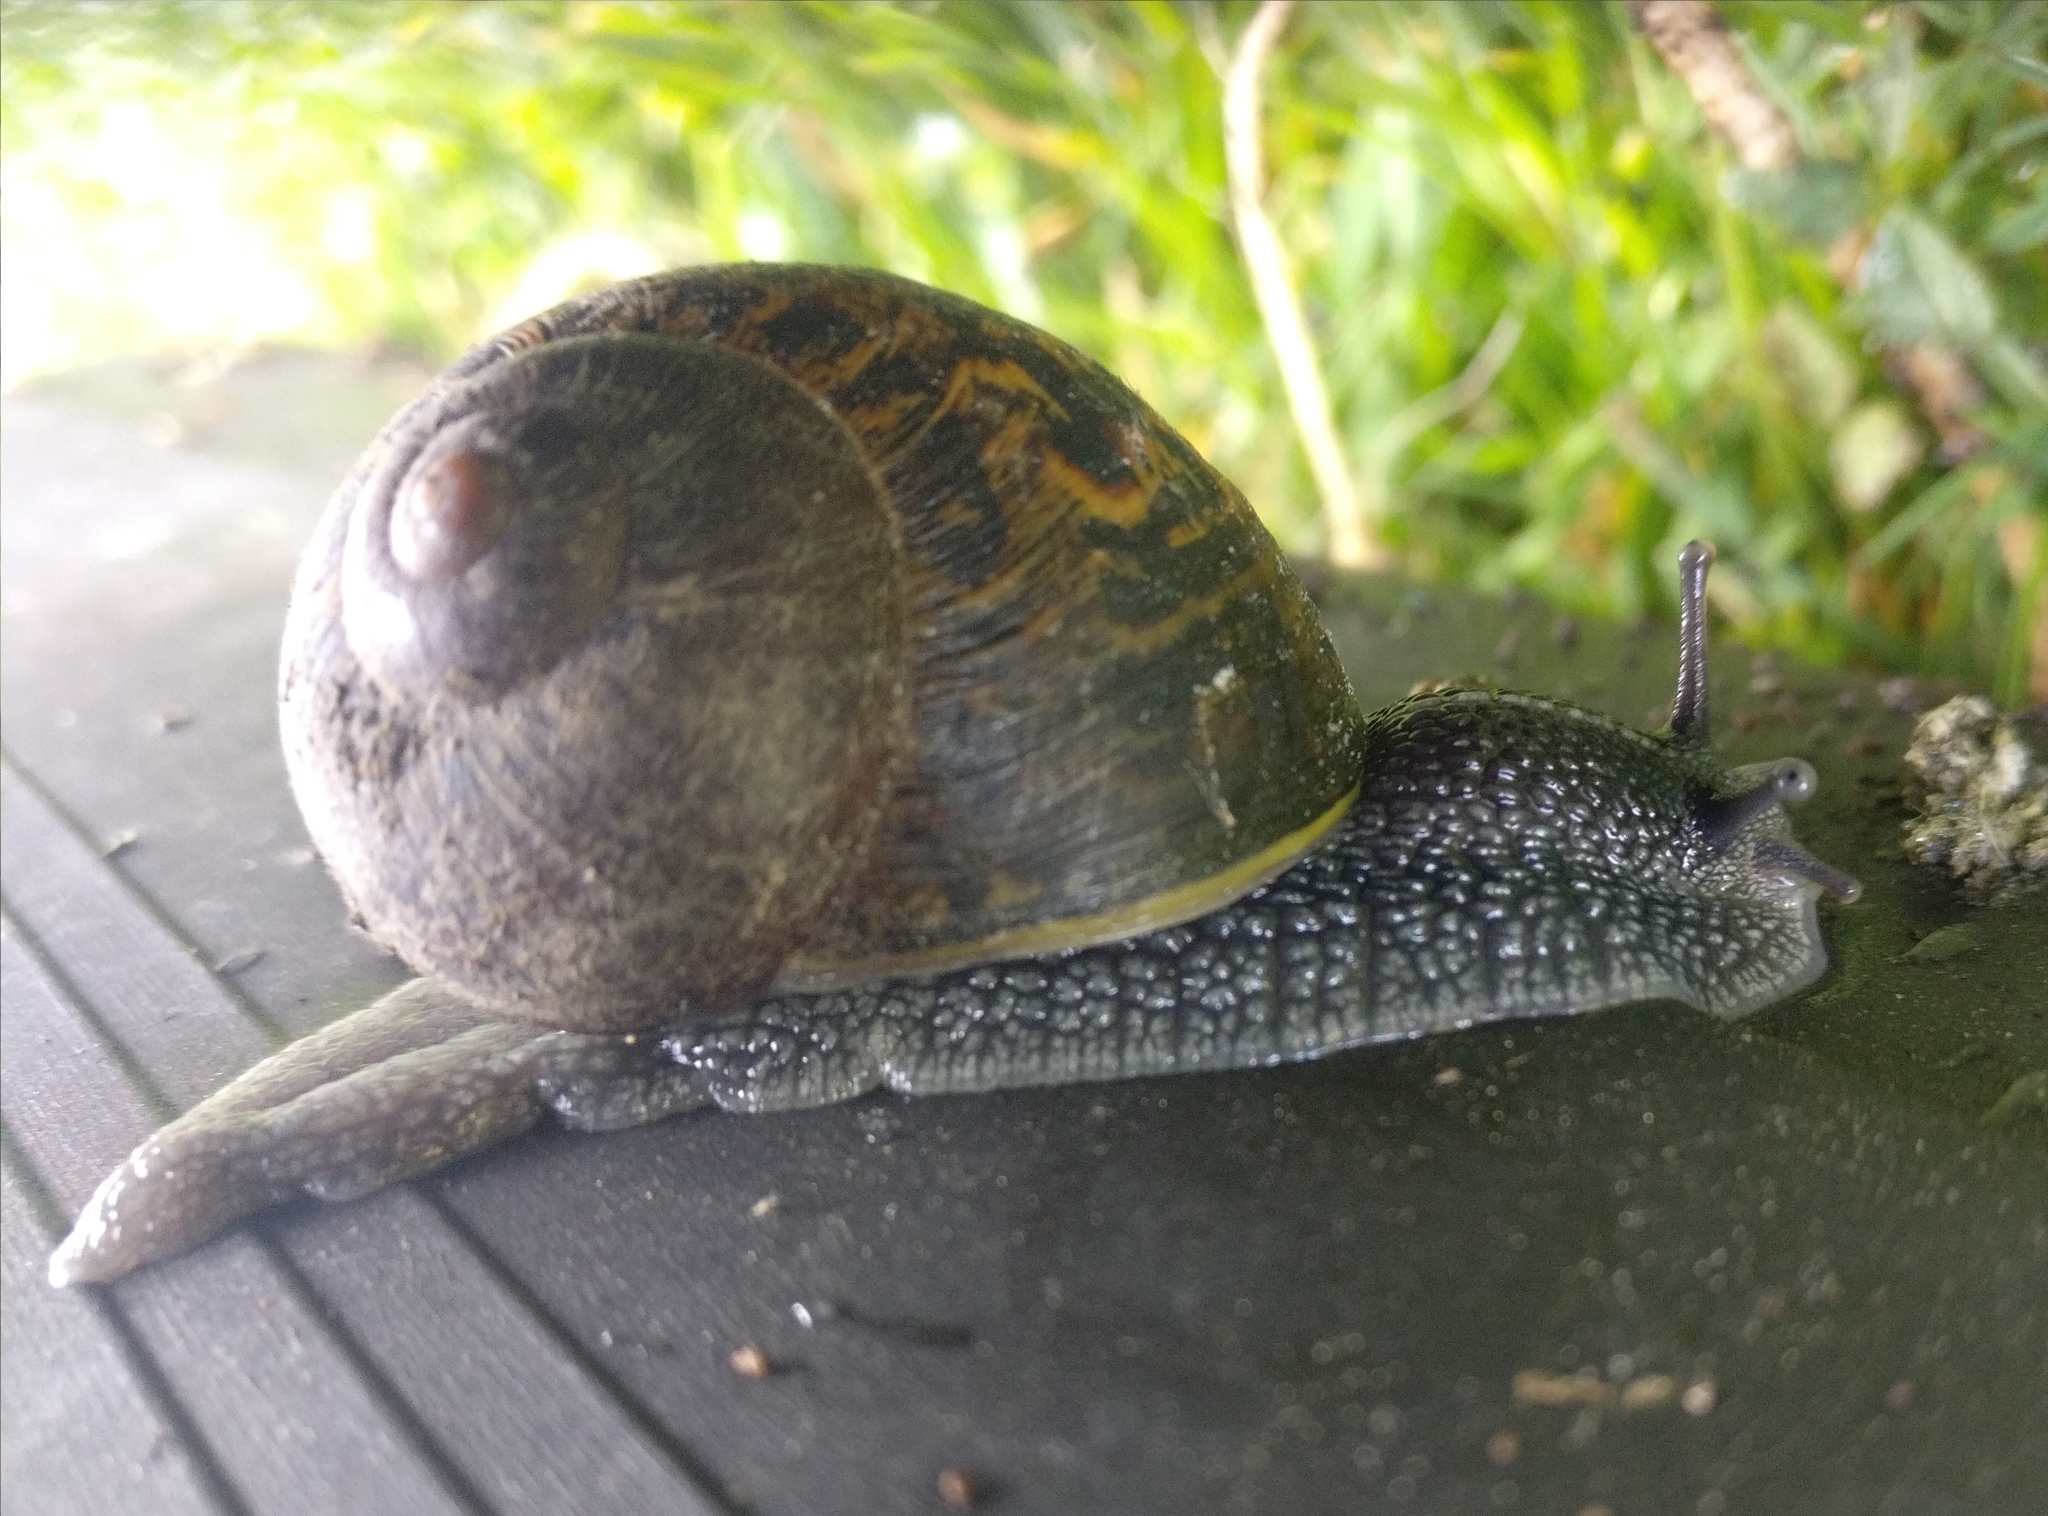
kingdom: Animalia
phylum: Mollusca
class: Gastropoda
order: Stylommatophora
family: Helicidae
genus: Cornu
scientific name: Cornu aspersum
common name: Brown garden snail
